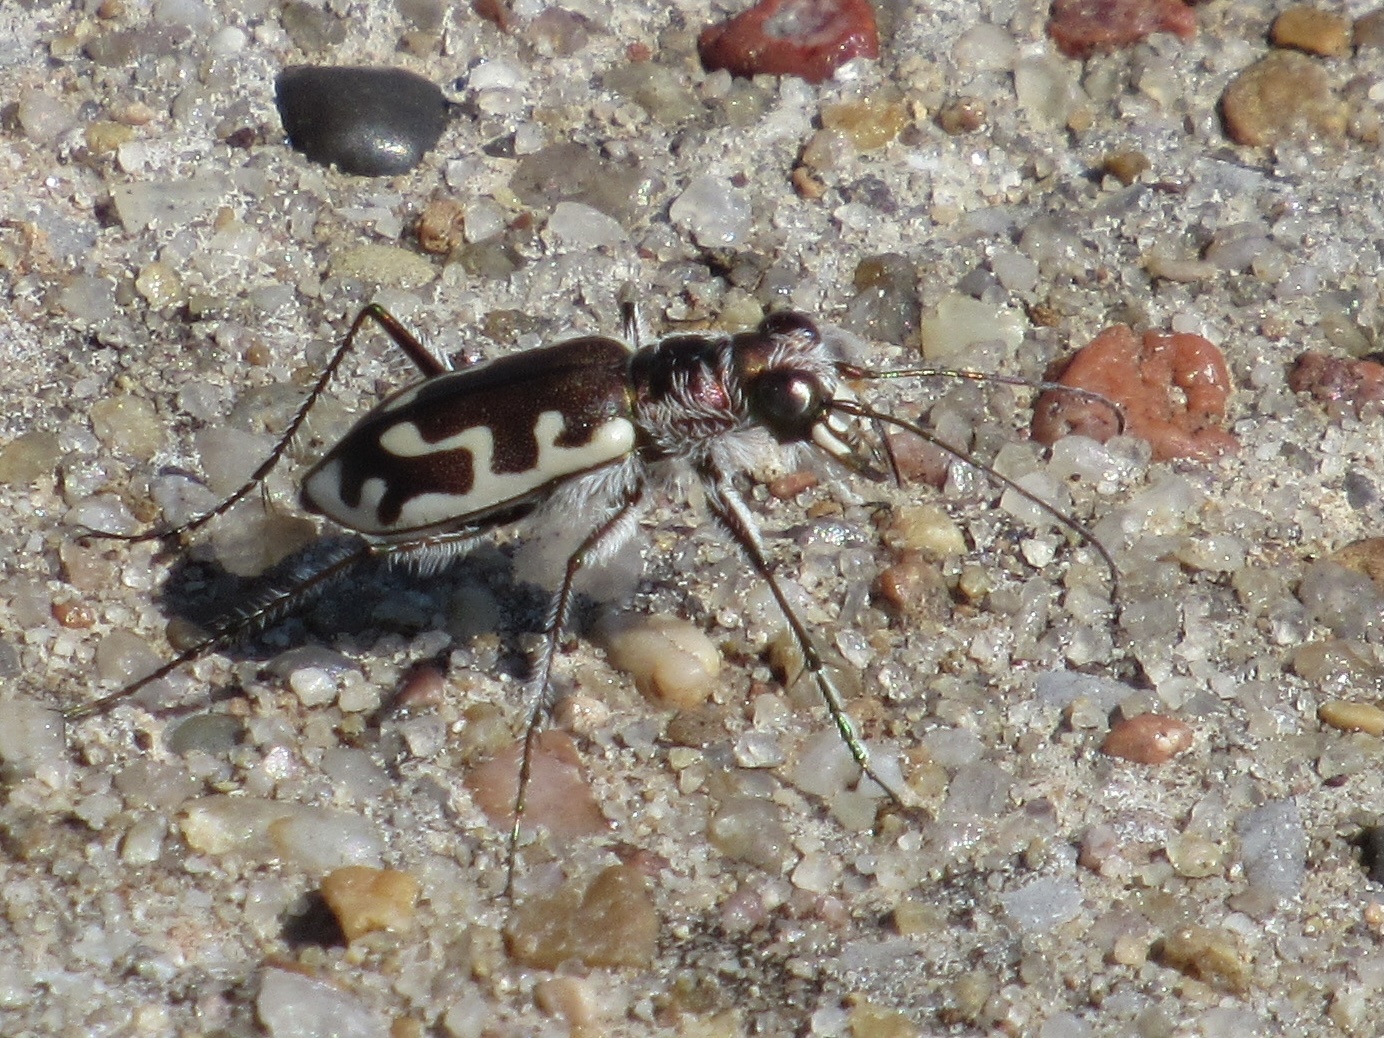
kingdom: Animalia
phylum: Arthropoda
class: Insecta
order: Coleoptera
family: Carabidae
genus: Cicindela
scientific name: Cicindela hirticollis
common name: Hairy-necked tiger beetle
